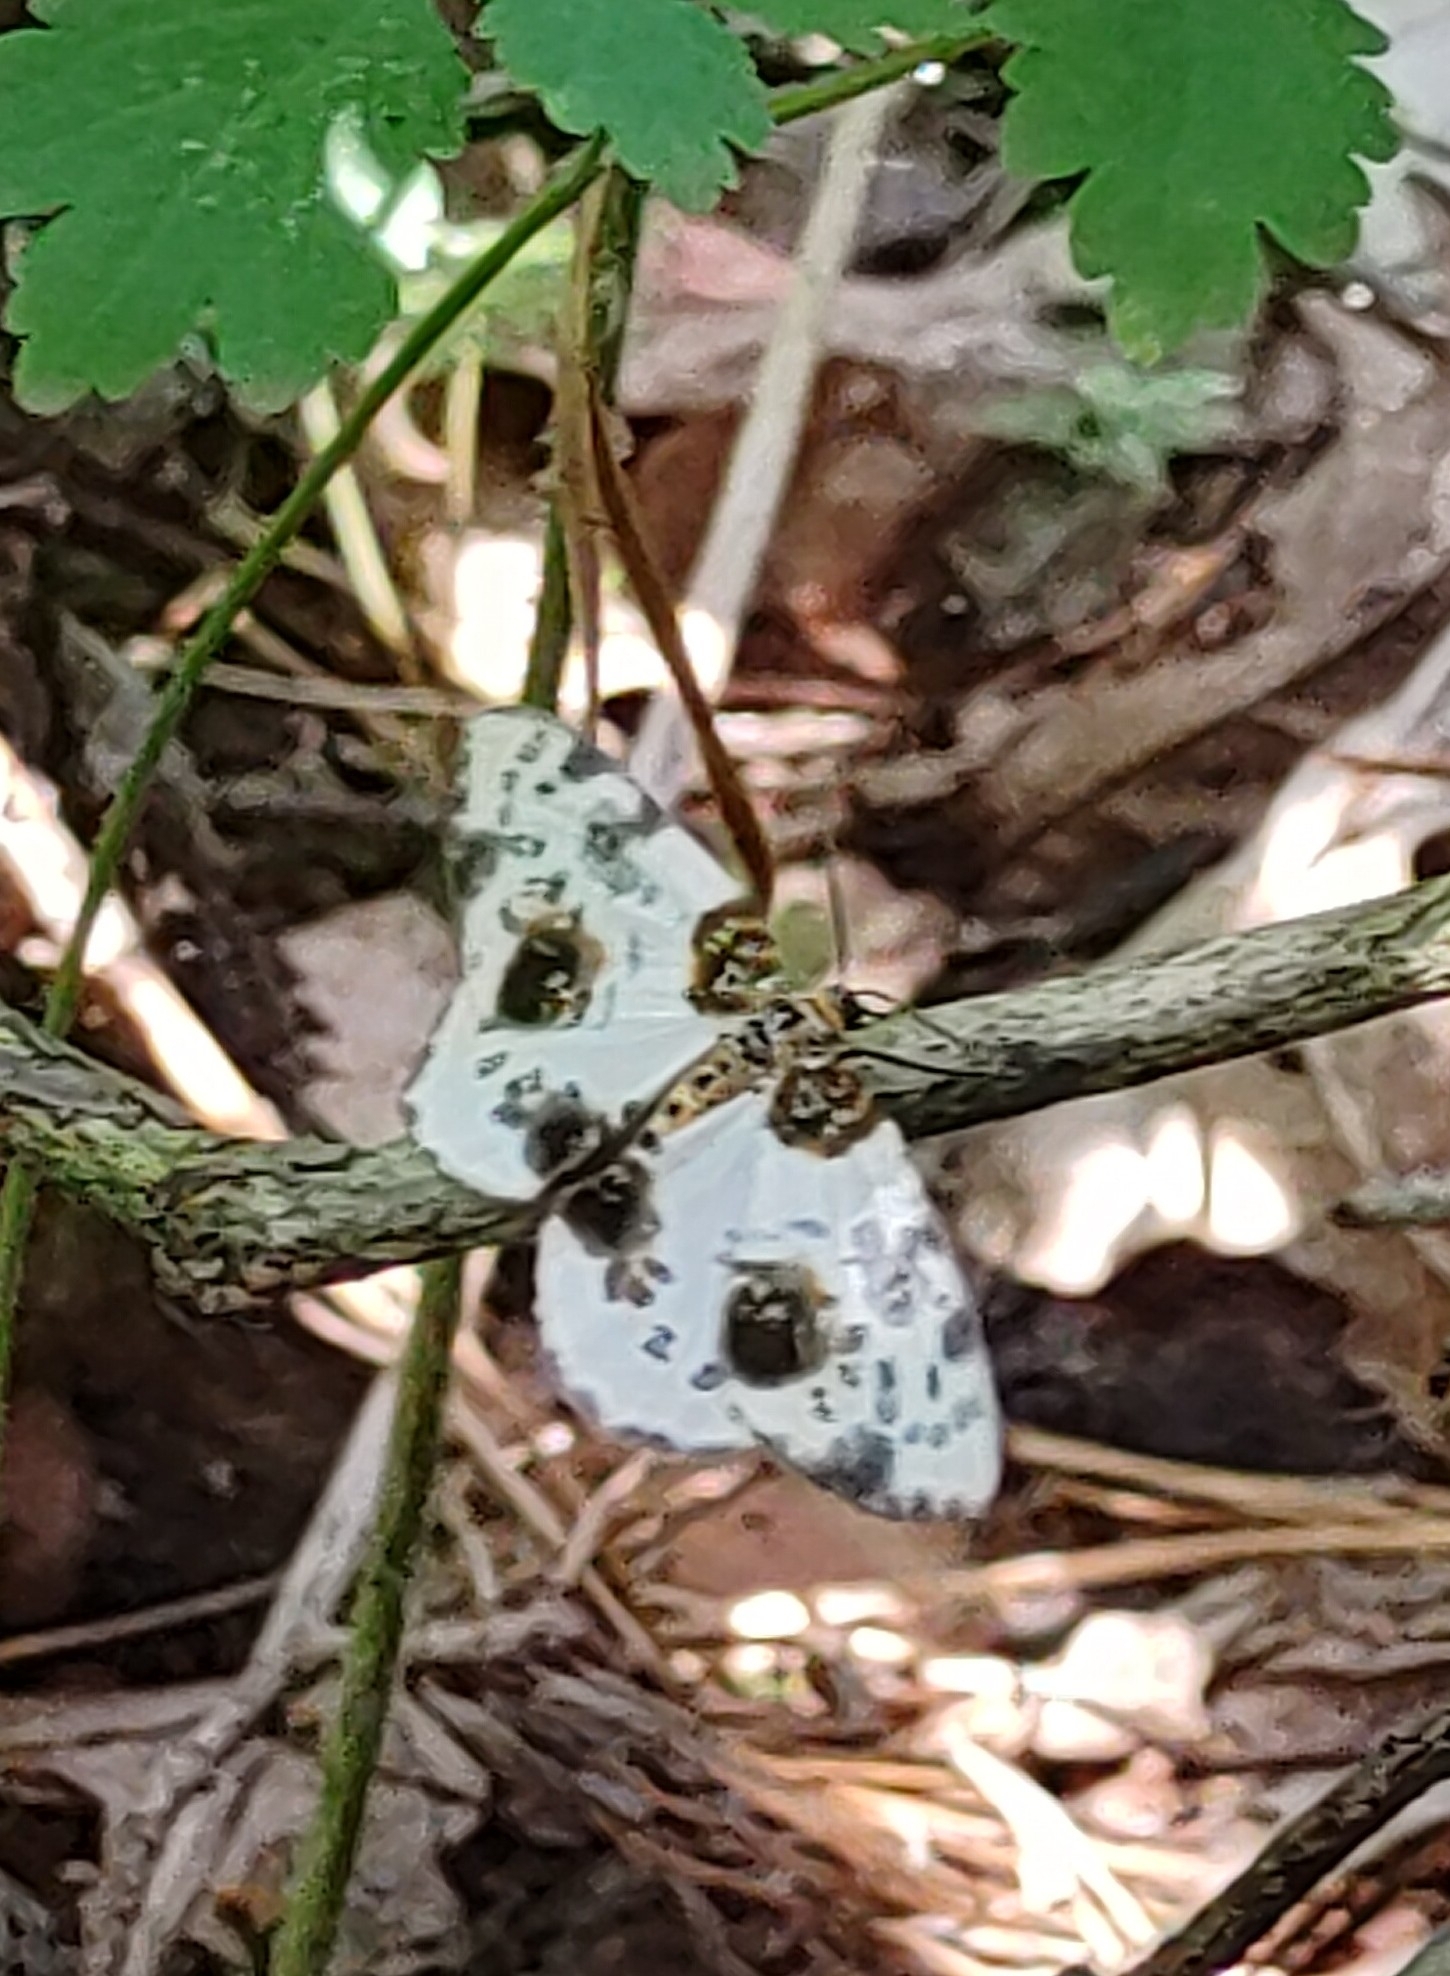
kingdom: Animalia
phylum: Arthropoda
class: Insecta
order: Lepidoptera
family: Geometridae
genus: Abraxas
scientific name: Abraxas sylvata
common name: Clouded magpie
